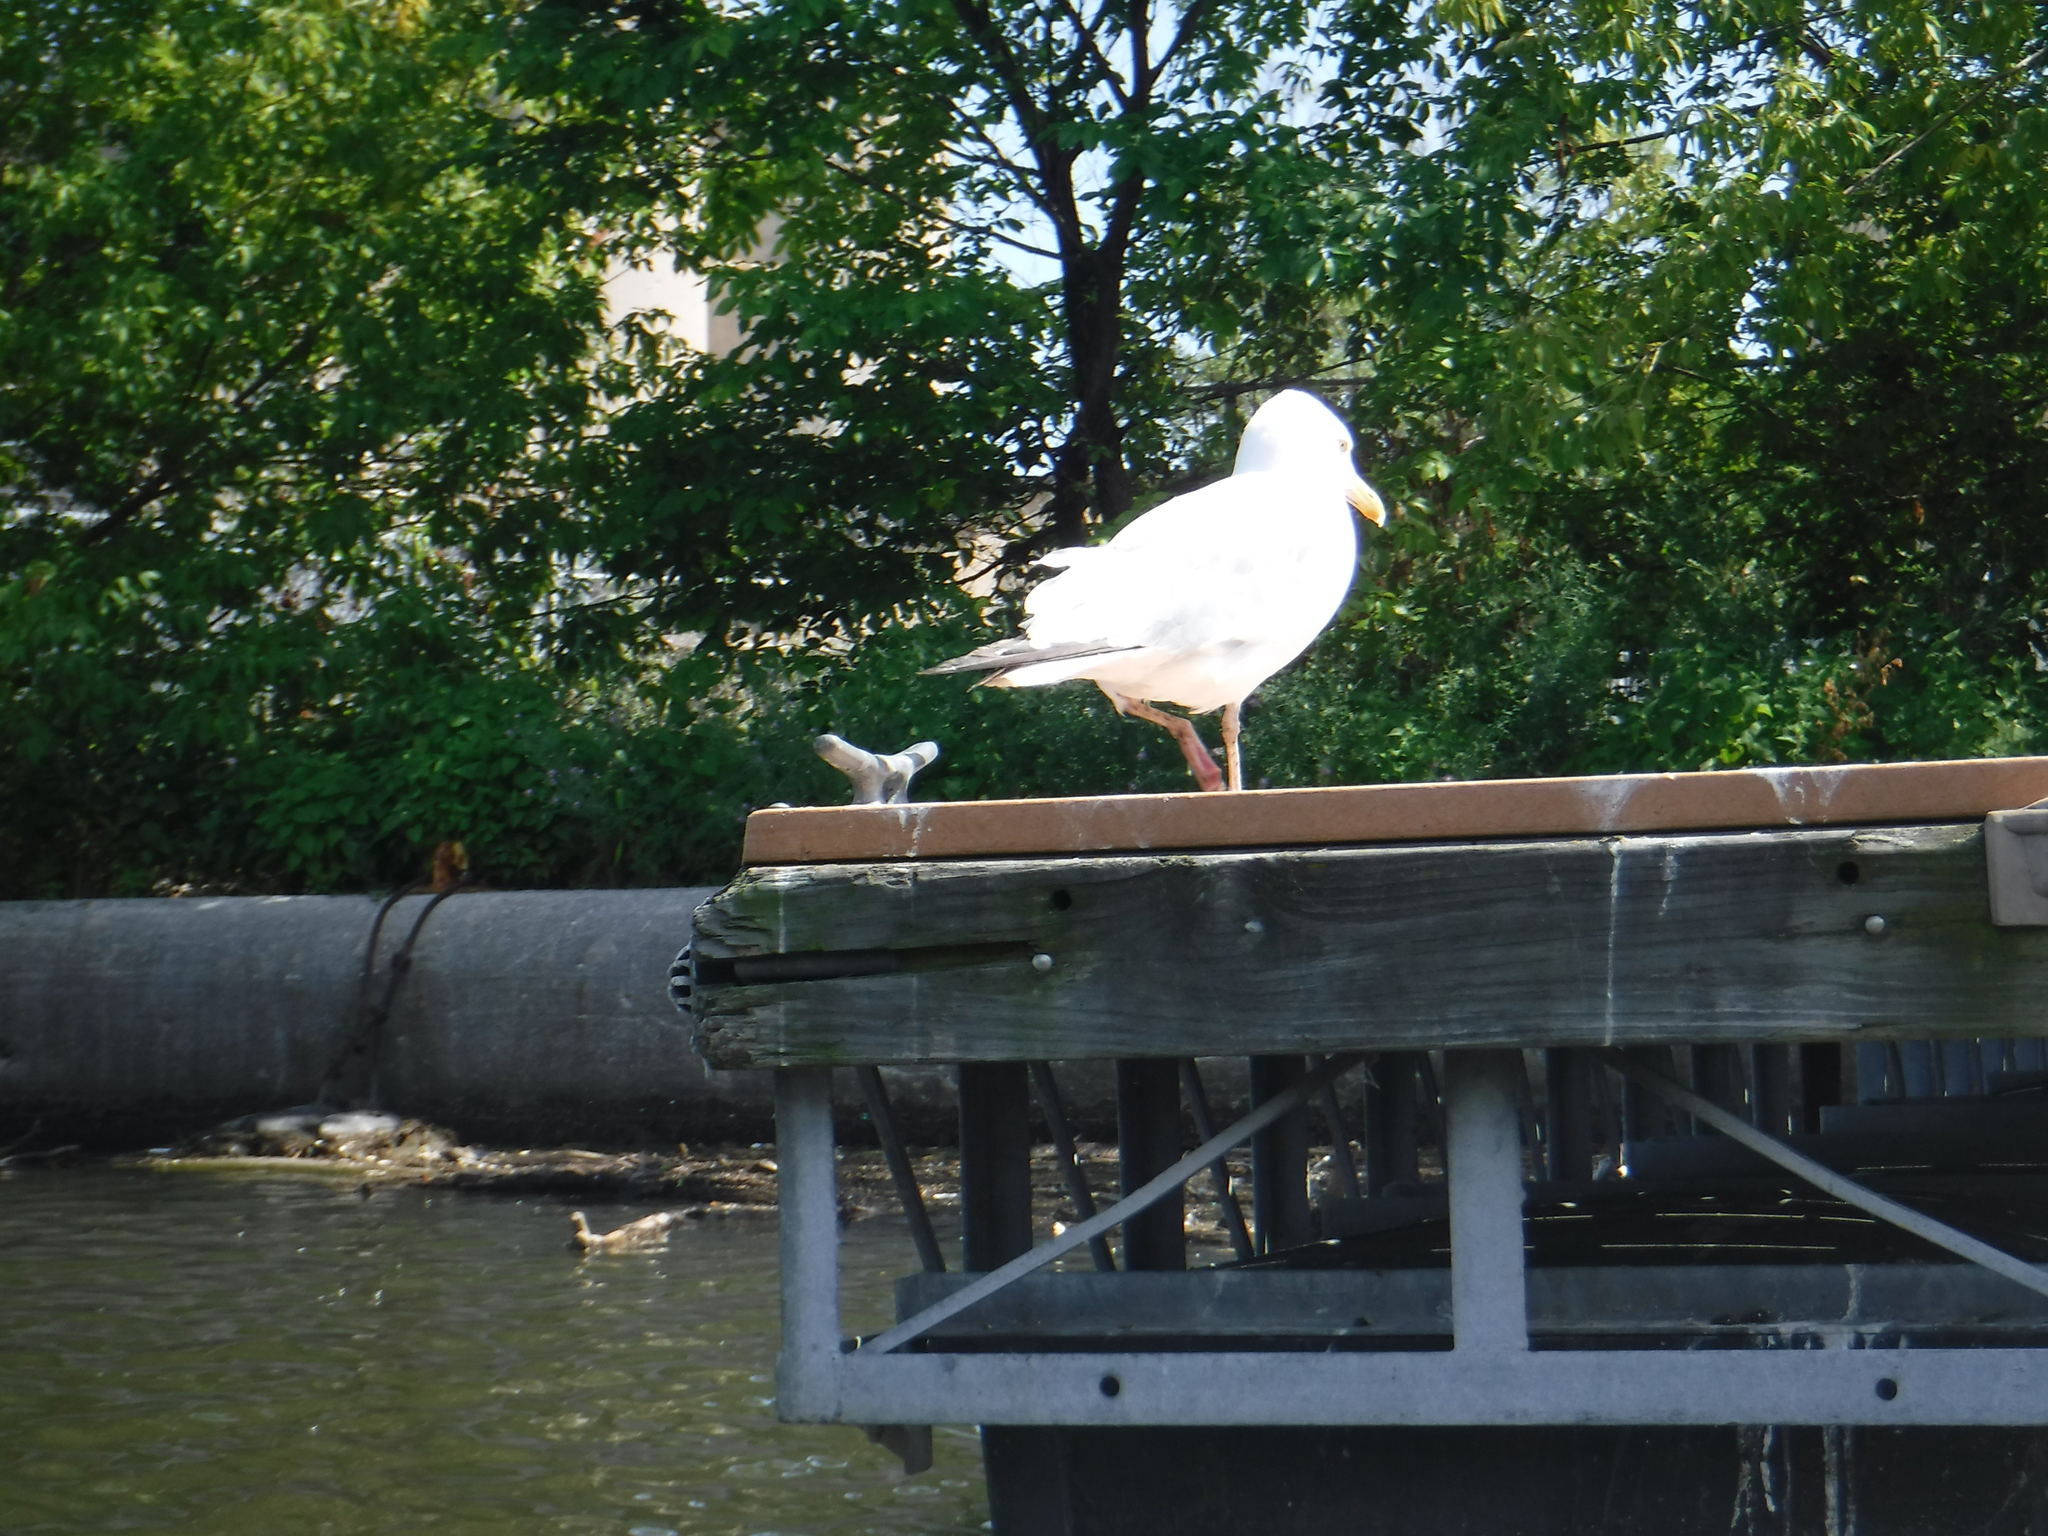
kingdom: Animalia
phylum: Chordata
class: Aves
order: Charadriiformes
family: Laridae
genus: Larus
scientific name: Larus smithsonianus
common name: American herring gull
